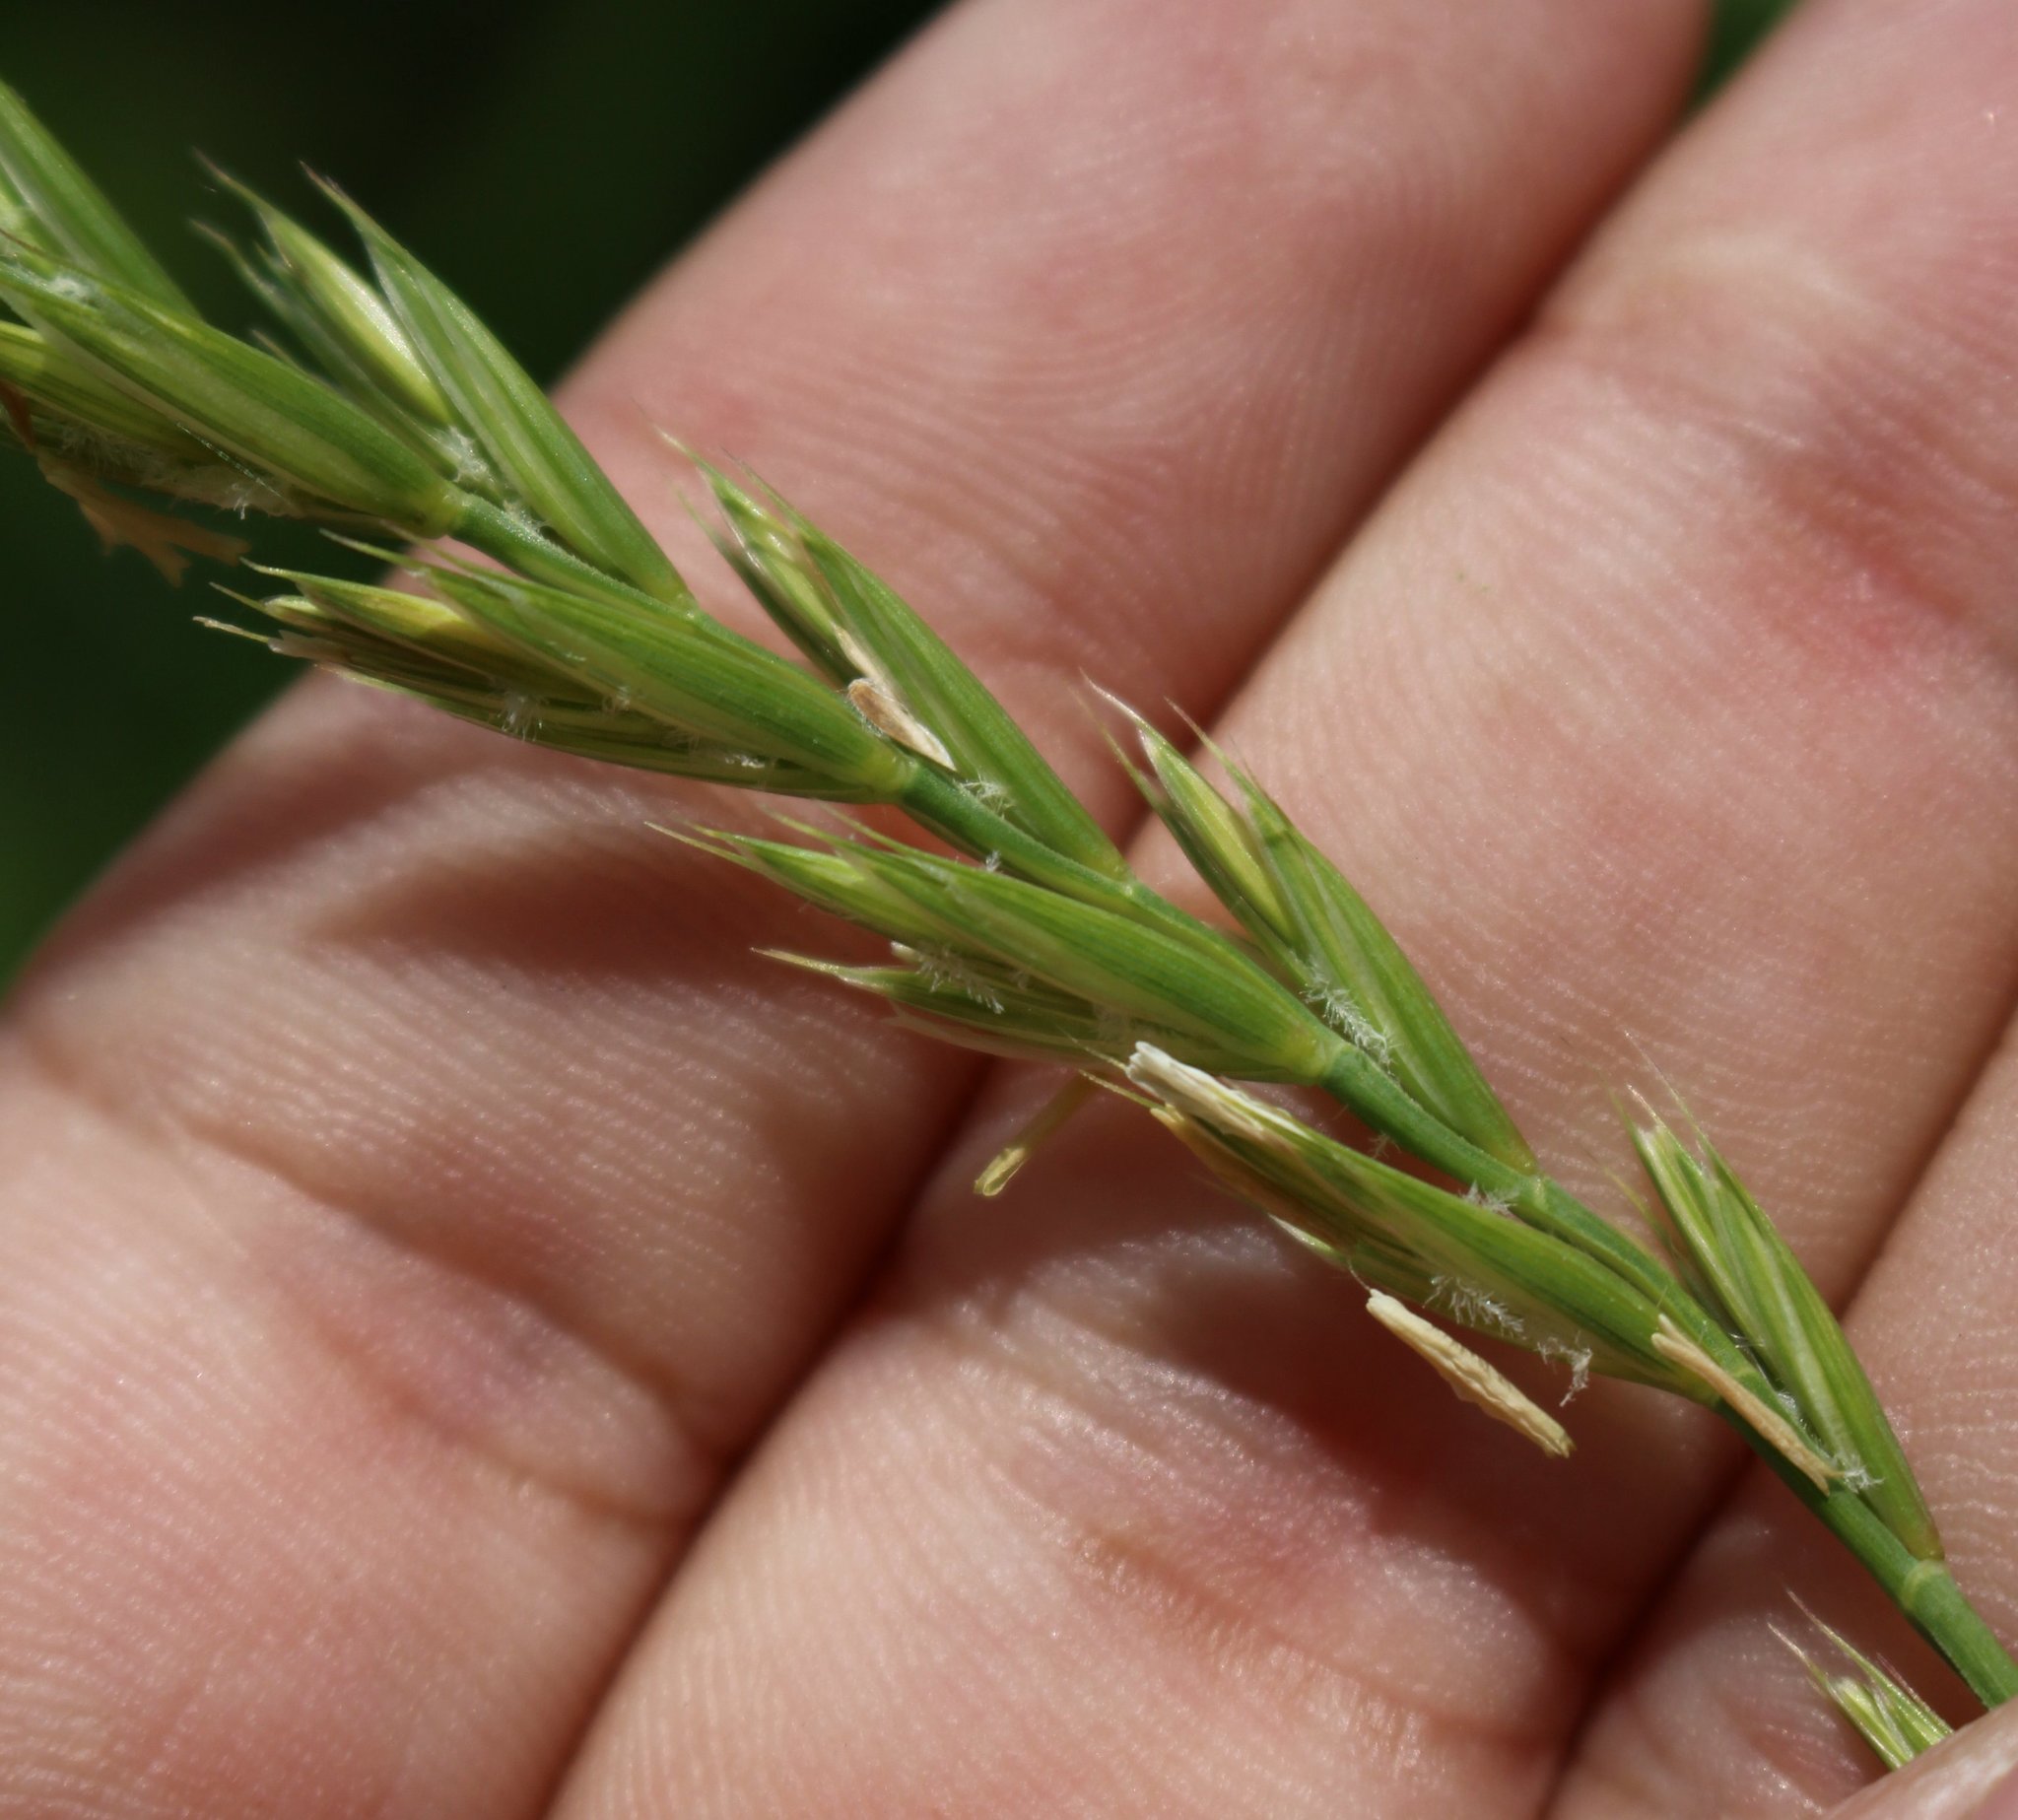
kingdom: Plantae
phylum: Tracheophyta
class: Liliopsida
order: Poales
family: Poaceae
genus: Elymus
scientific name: Elymus repens
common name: Quackgrass
